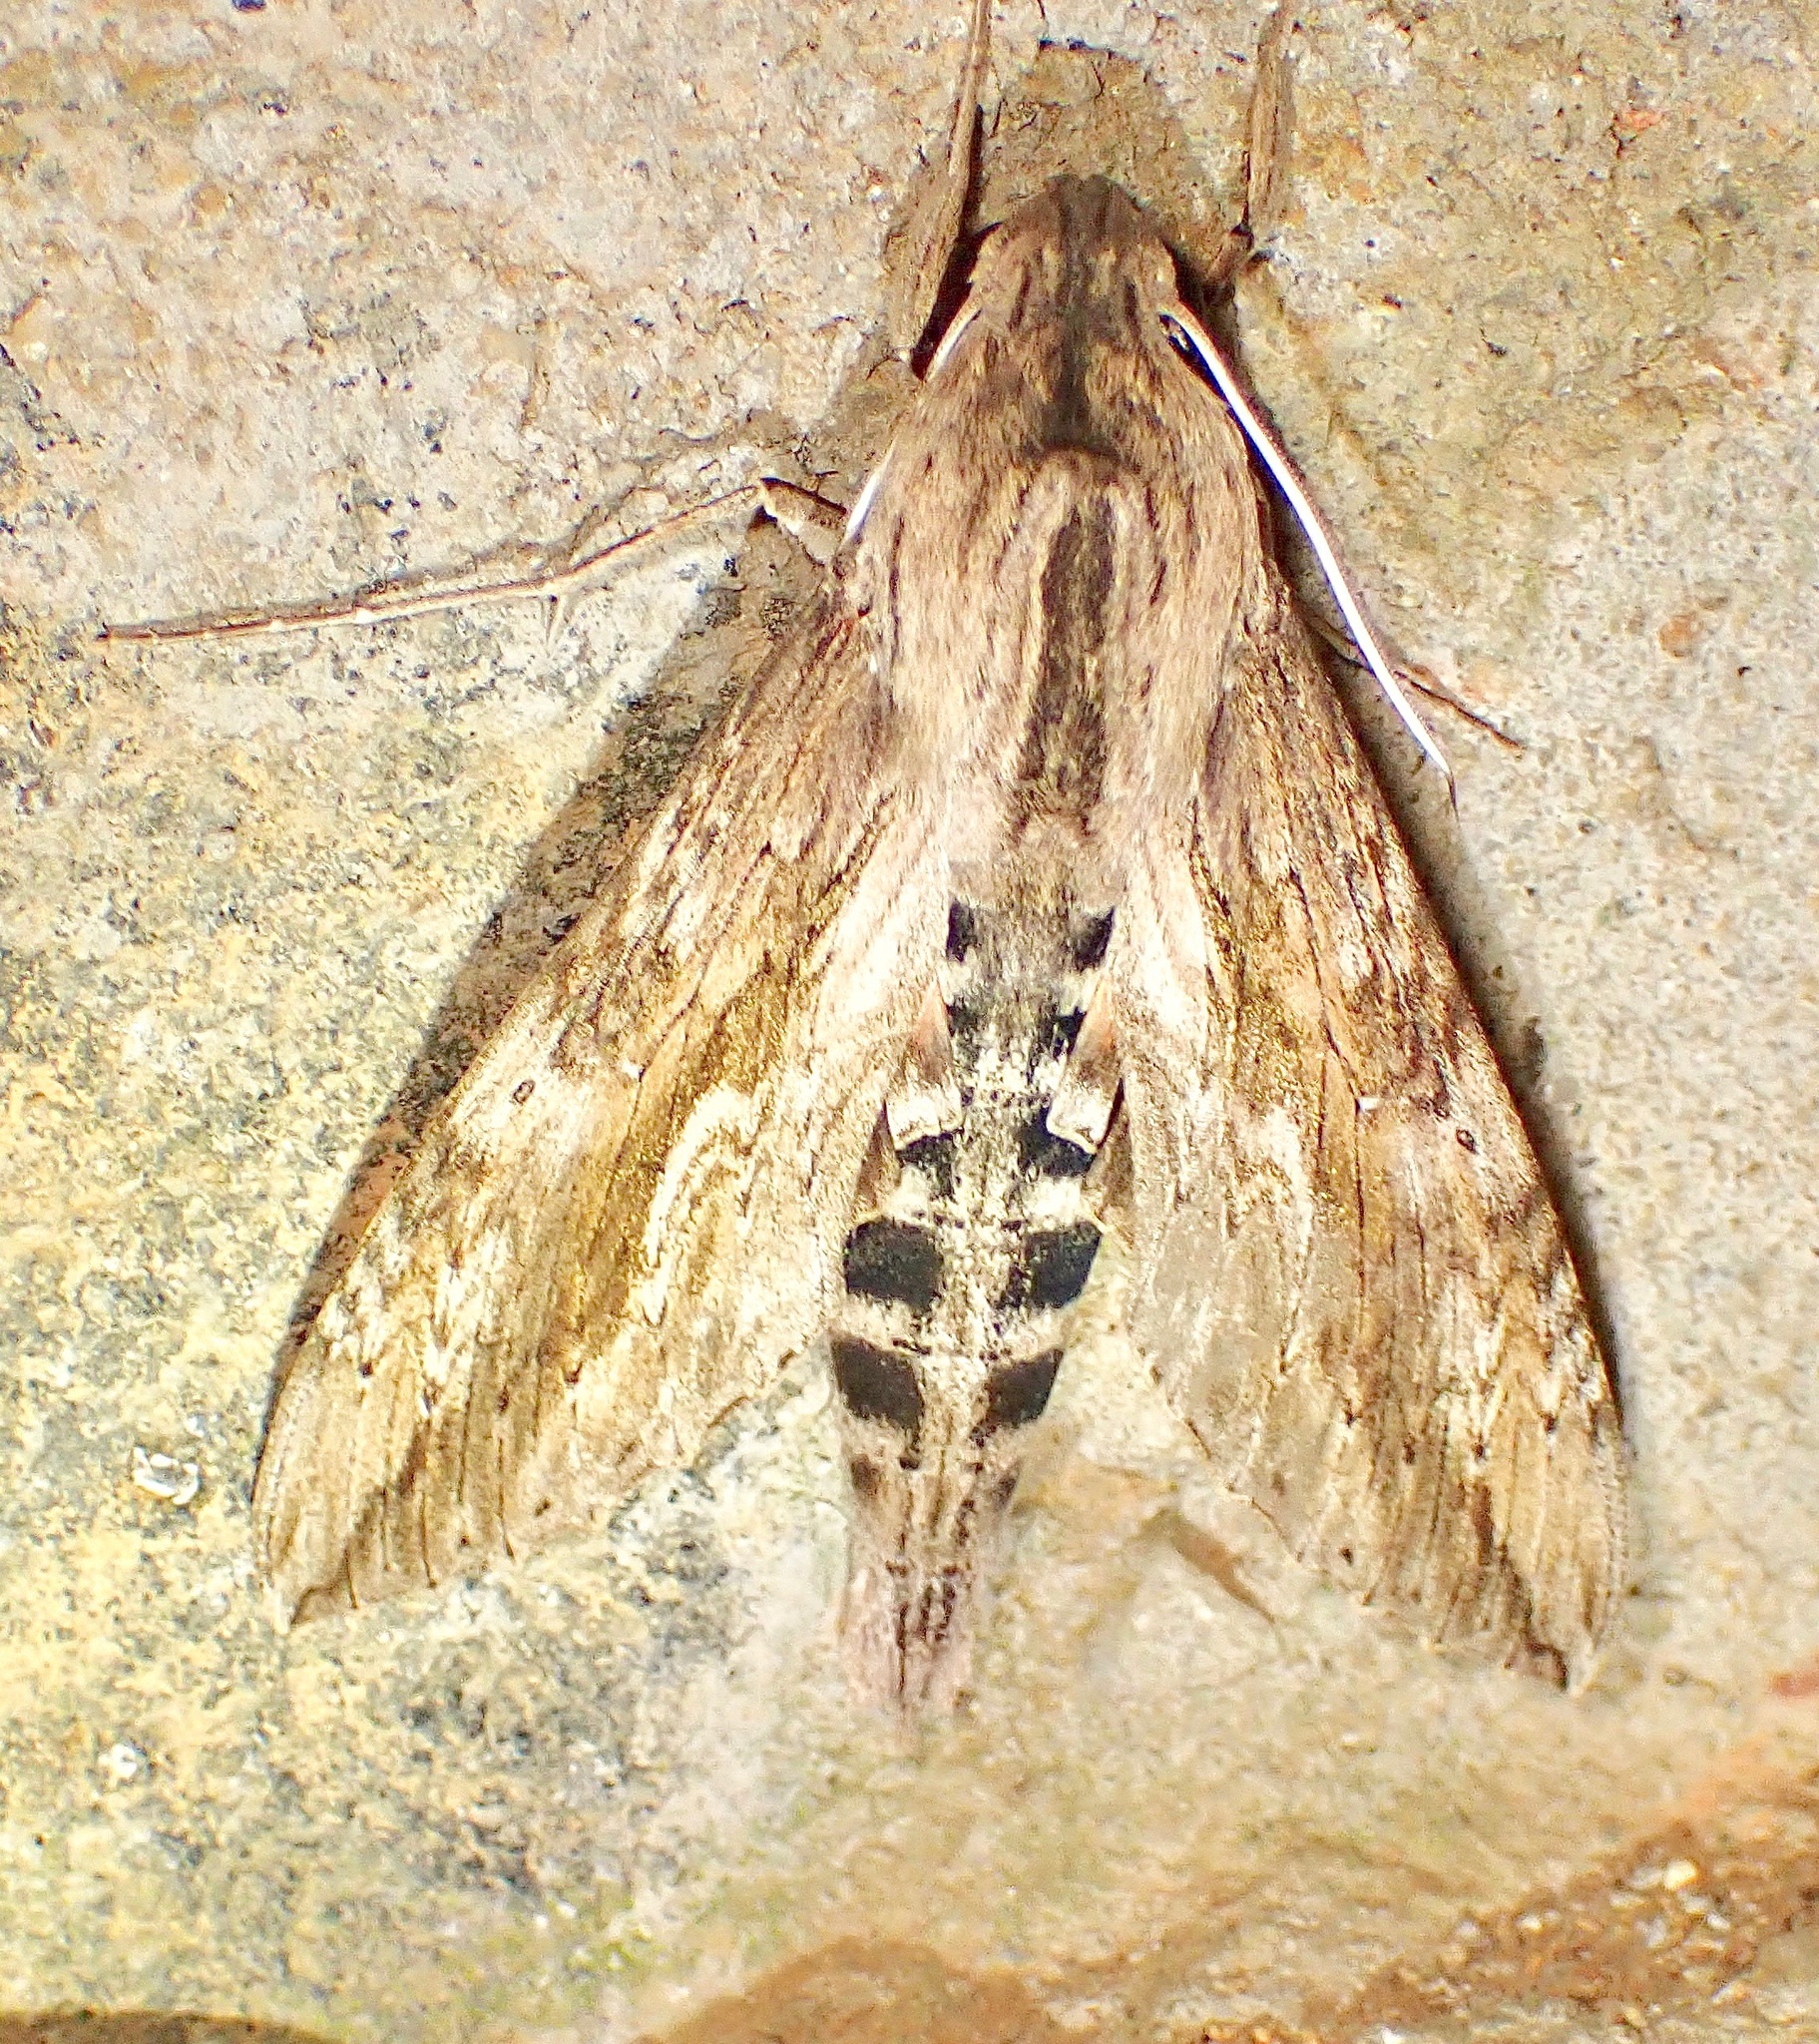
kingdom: Animalia
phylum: Arthropoda
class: Insecta
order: Lepidoptera
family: Sphingidae
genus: Erinnyis
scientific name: Erinnyis ello
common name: Ello sphinx
